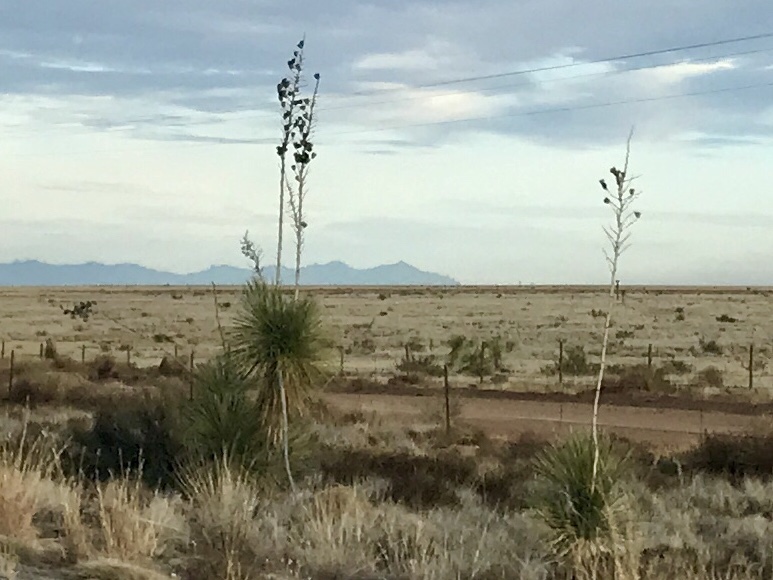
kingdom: Plantae
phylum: Tracheophyta
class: Liliopsida
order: Asparagales
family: Asparagaceae
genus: Yucca
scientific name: Yucca elata
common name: Palmella
